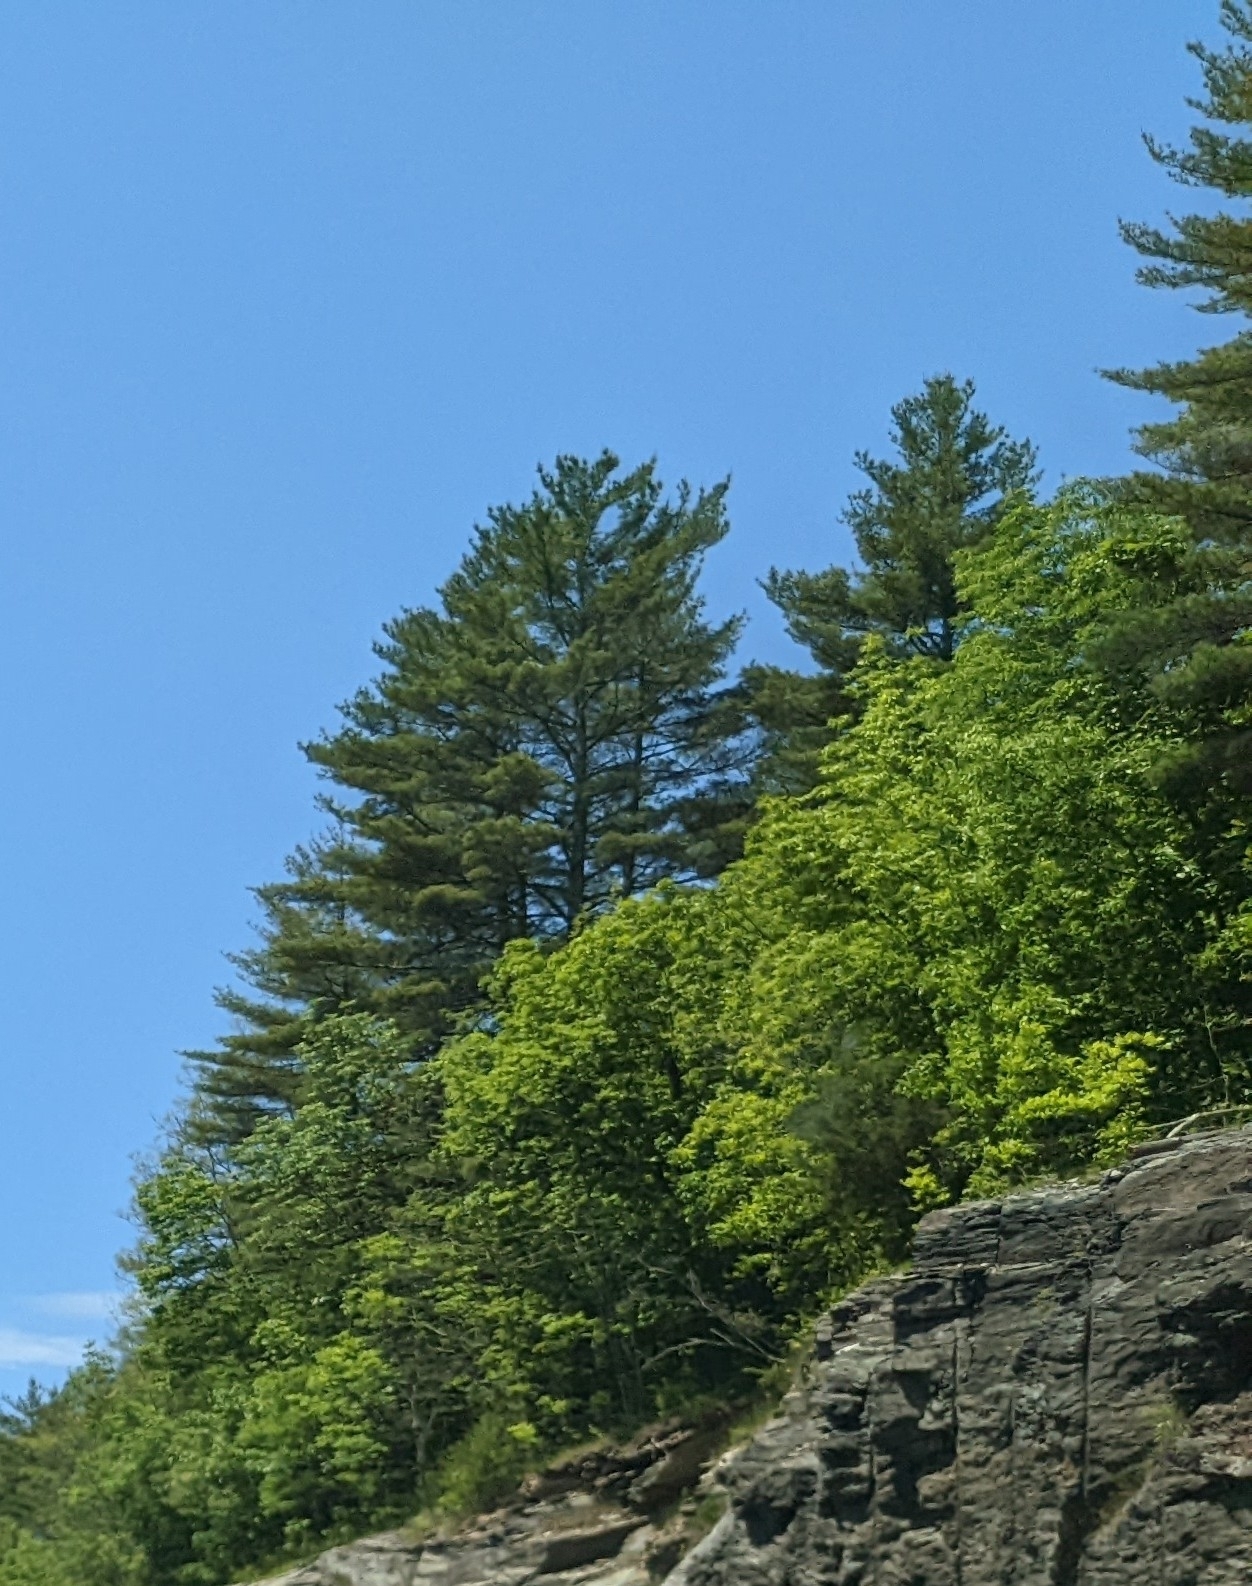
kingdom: Plantae
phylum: Tracheophyta
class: Pinopsida
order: Pinales
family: Pinaceae
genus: Pinus
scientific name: Pinus strobus
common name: Weymouth pine
